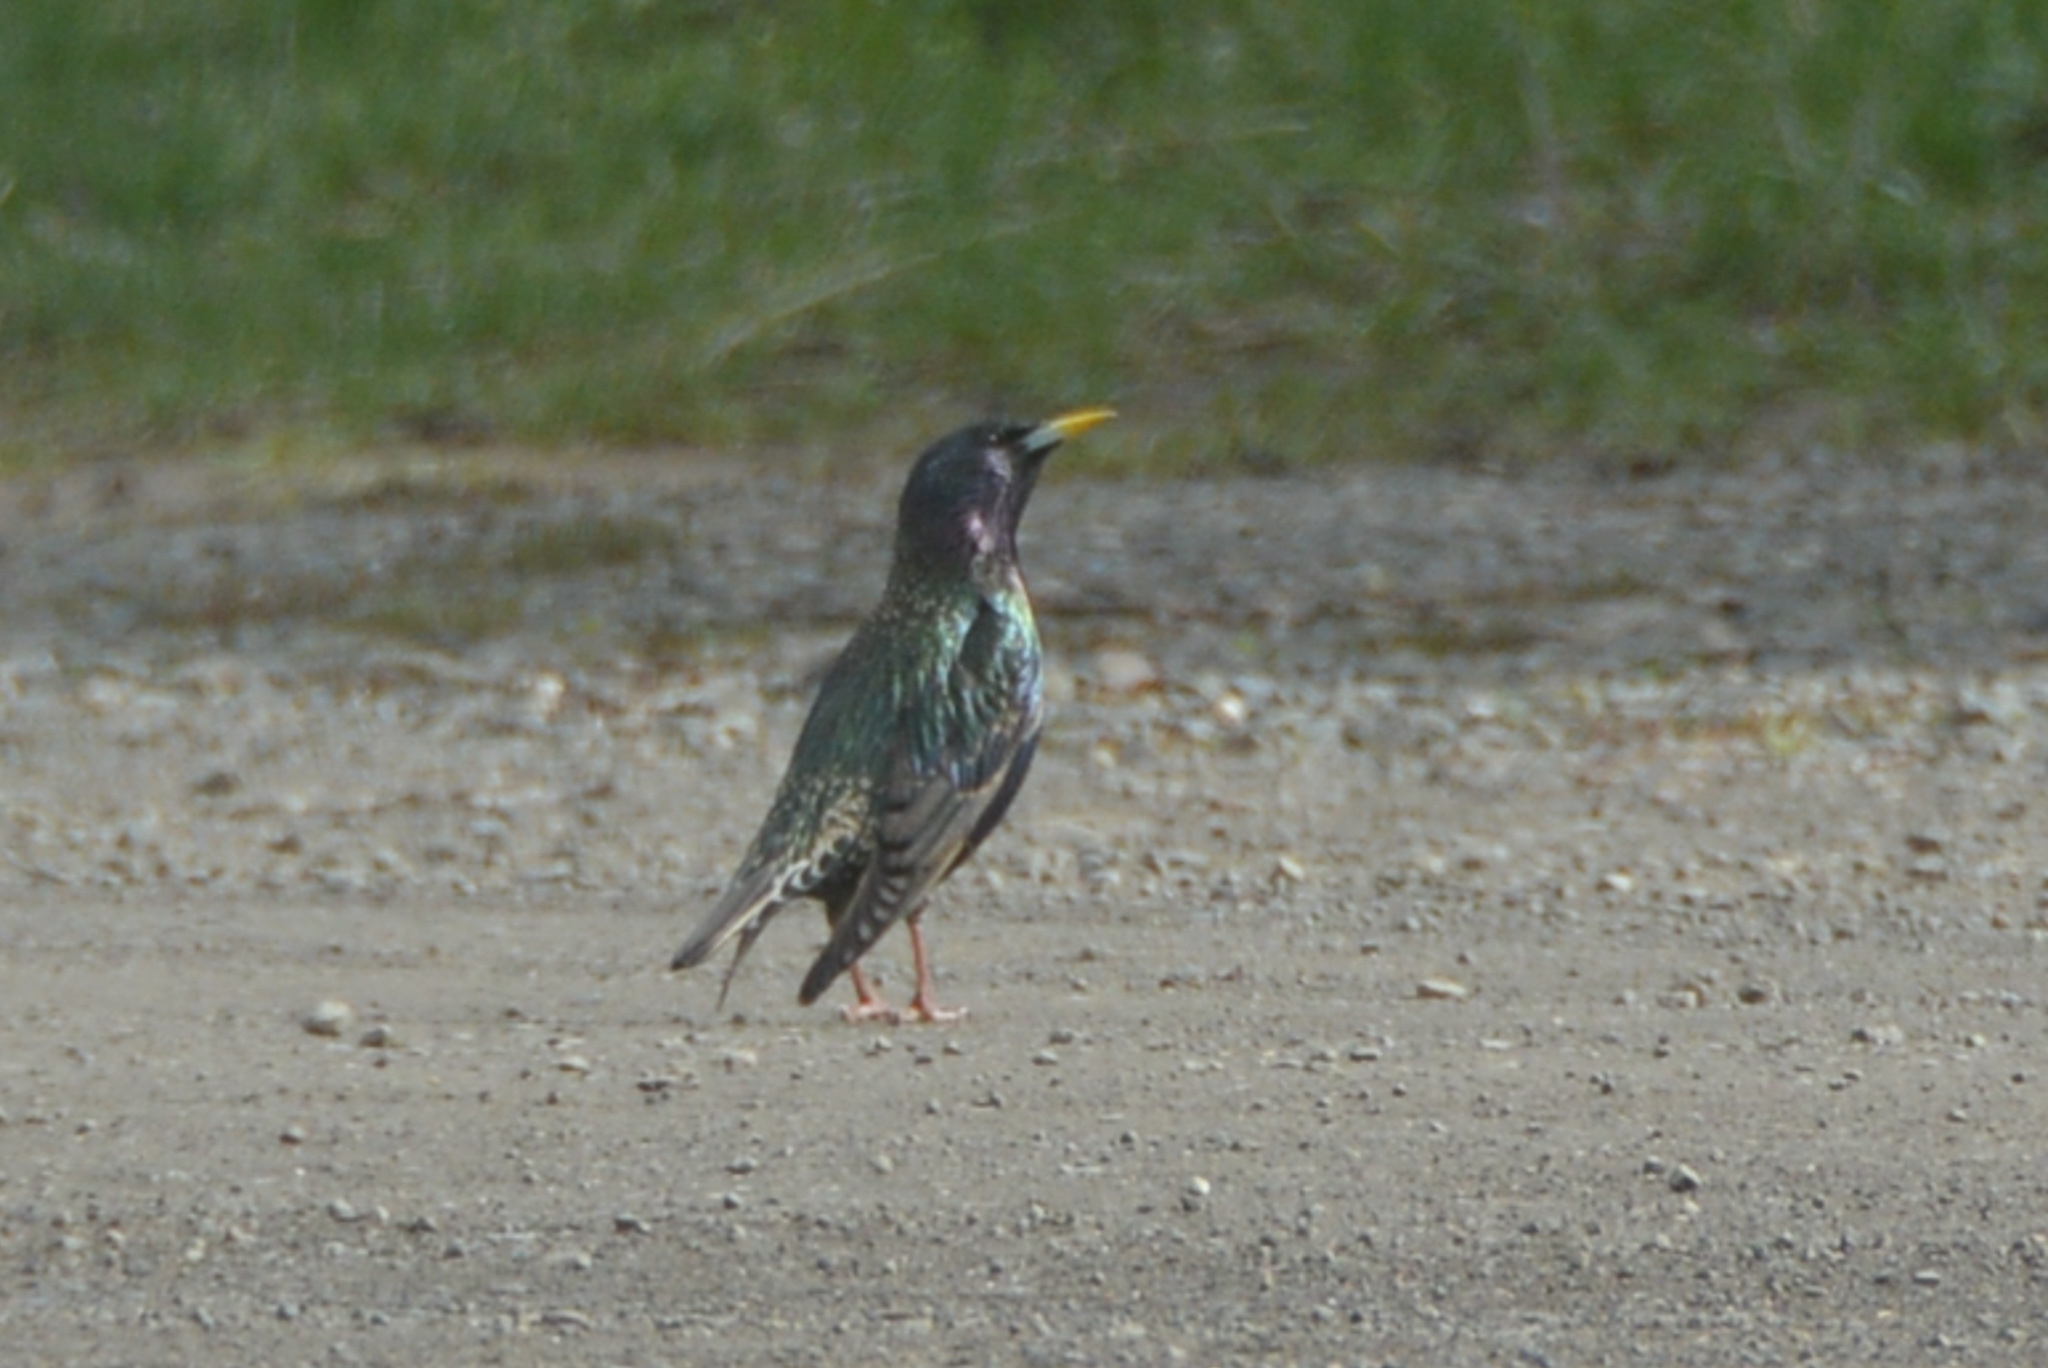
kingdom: Animalia
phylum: Chordata
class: Aves
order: Passeriformes
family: Sturnidae
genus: Sturnus
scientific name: Sturnus vulgaris
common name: Common starling
